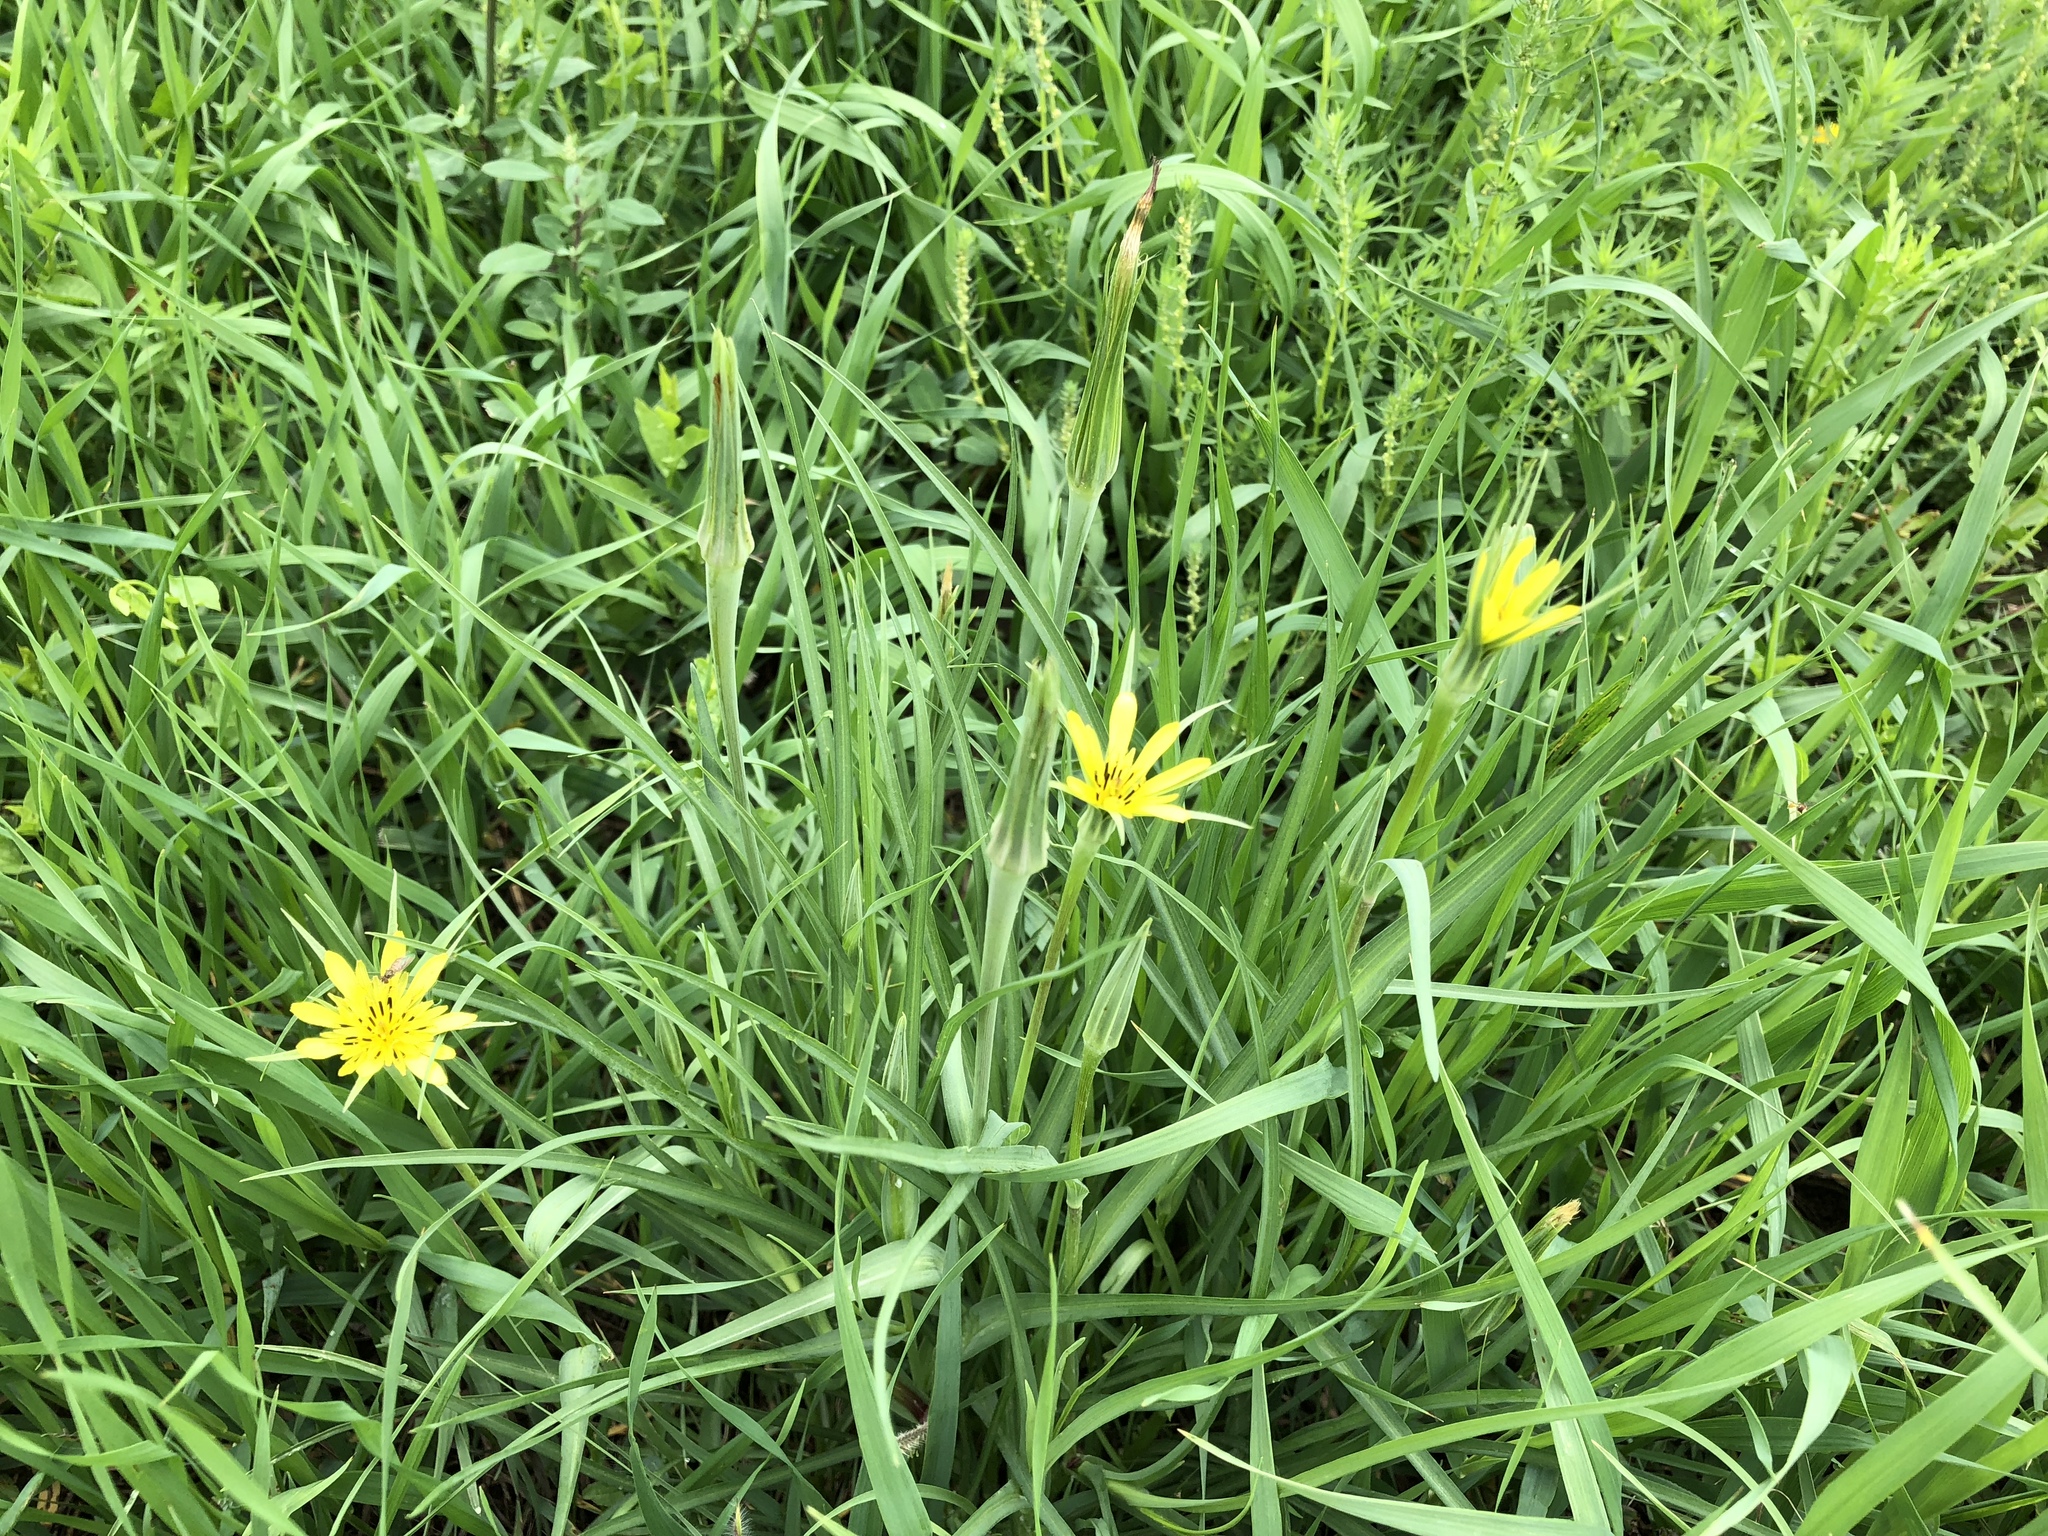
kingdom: Plantae
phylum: Tracheophyta
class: Magnoliopsida
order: Asterales
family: Asteraceae
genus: Tragopogon
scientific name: Tragopogon dubius
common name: Yellow salsify
